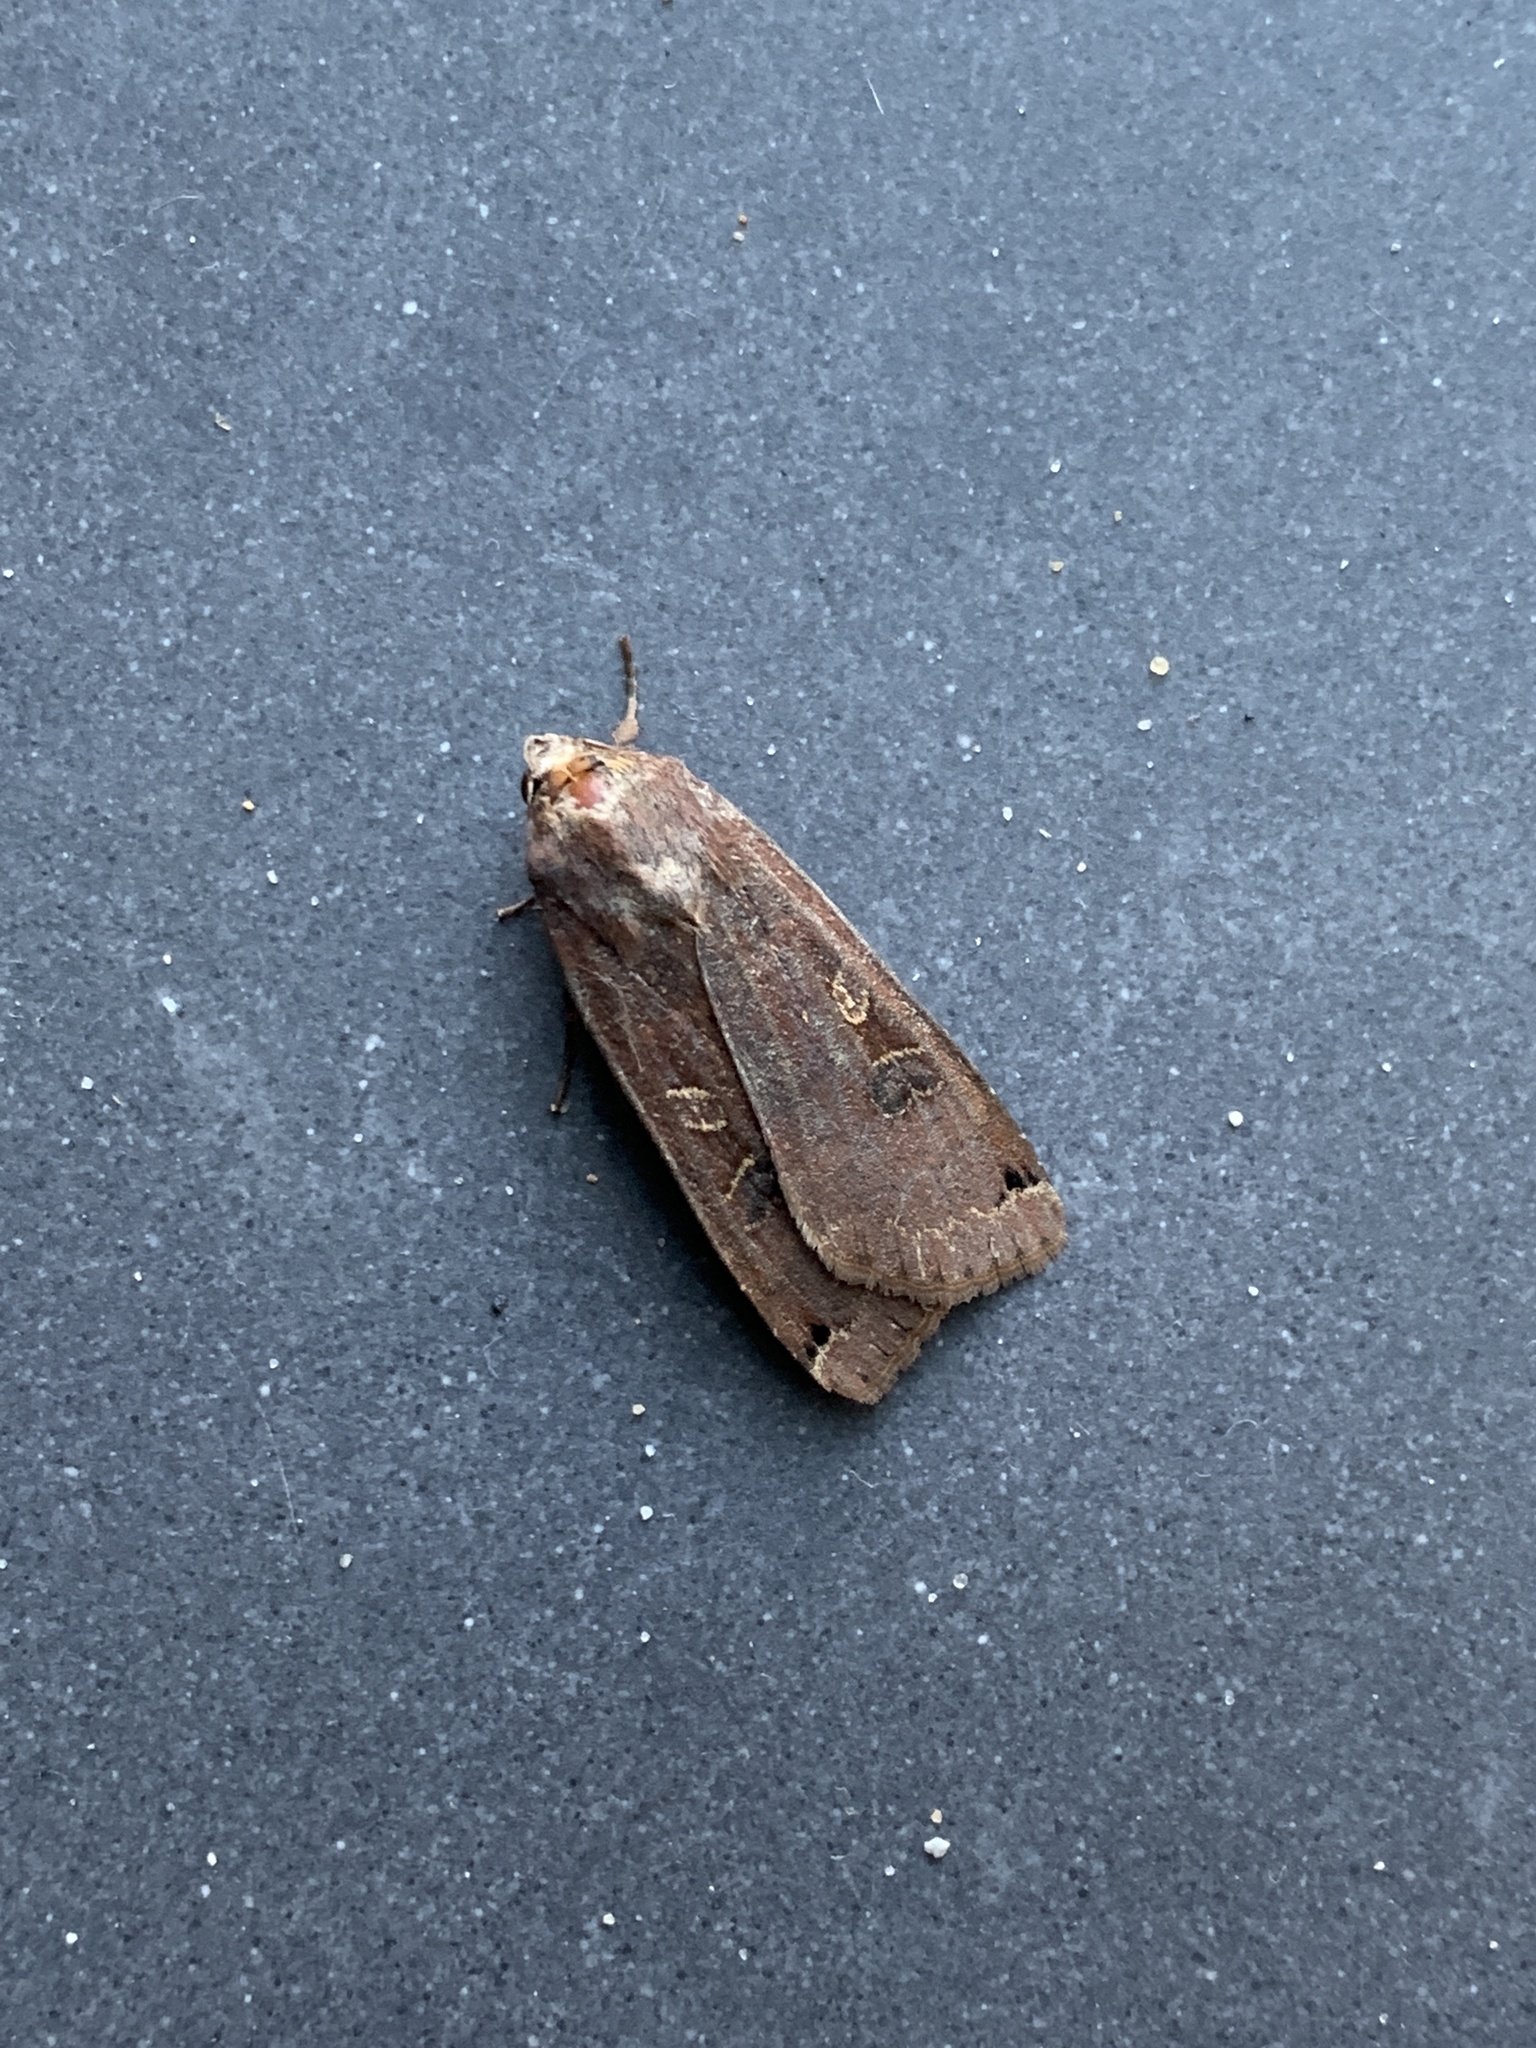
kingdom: Animalia
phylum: Arthropoda
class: Insecta
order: Lepidoptera
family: Noctuidae
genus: Noctua
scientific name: Noctua pronuba
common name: Large yellow underwing
